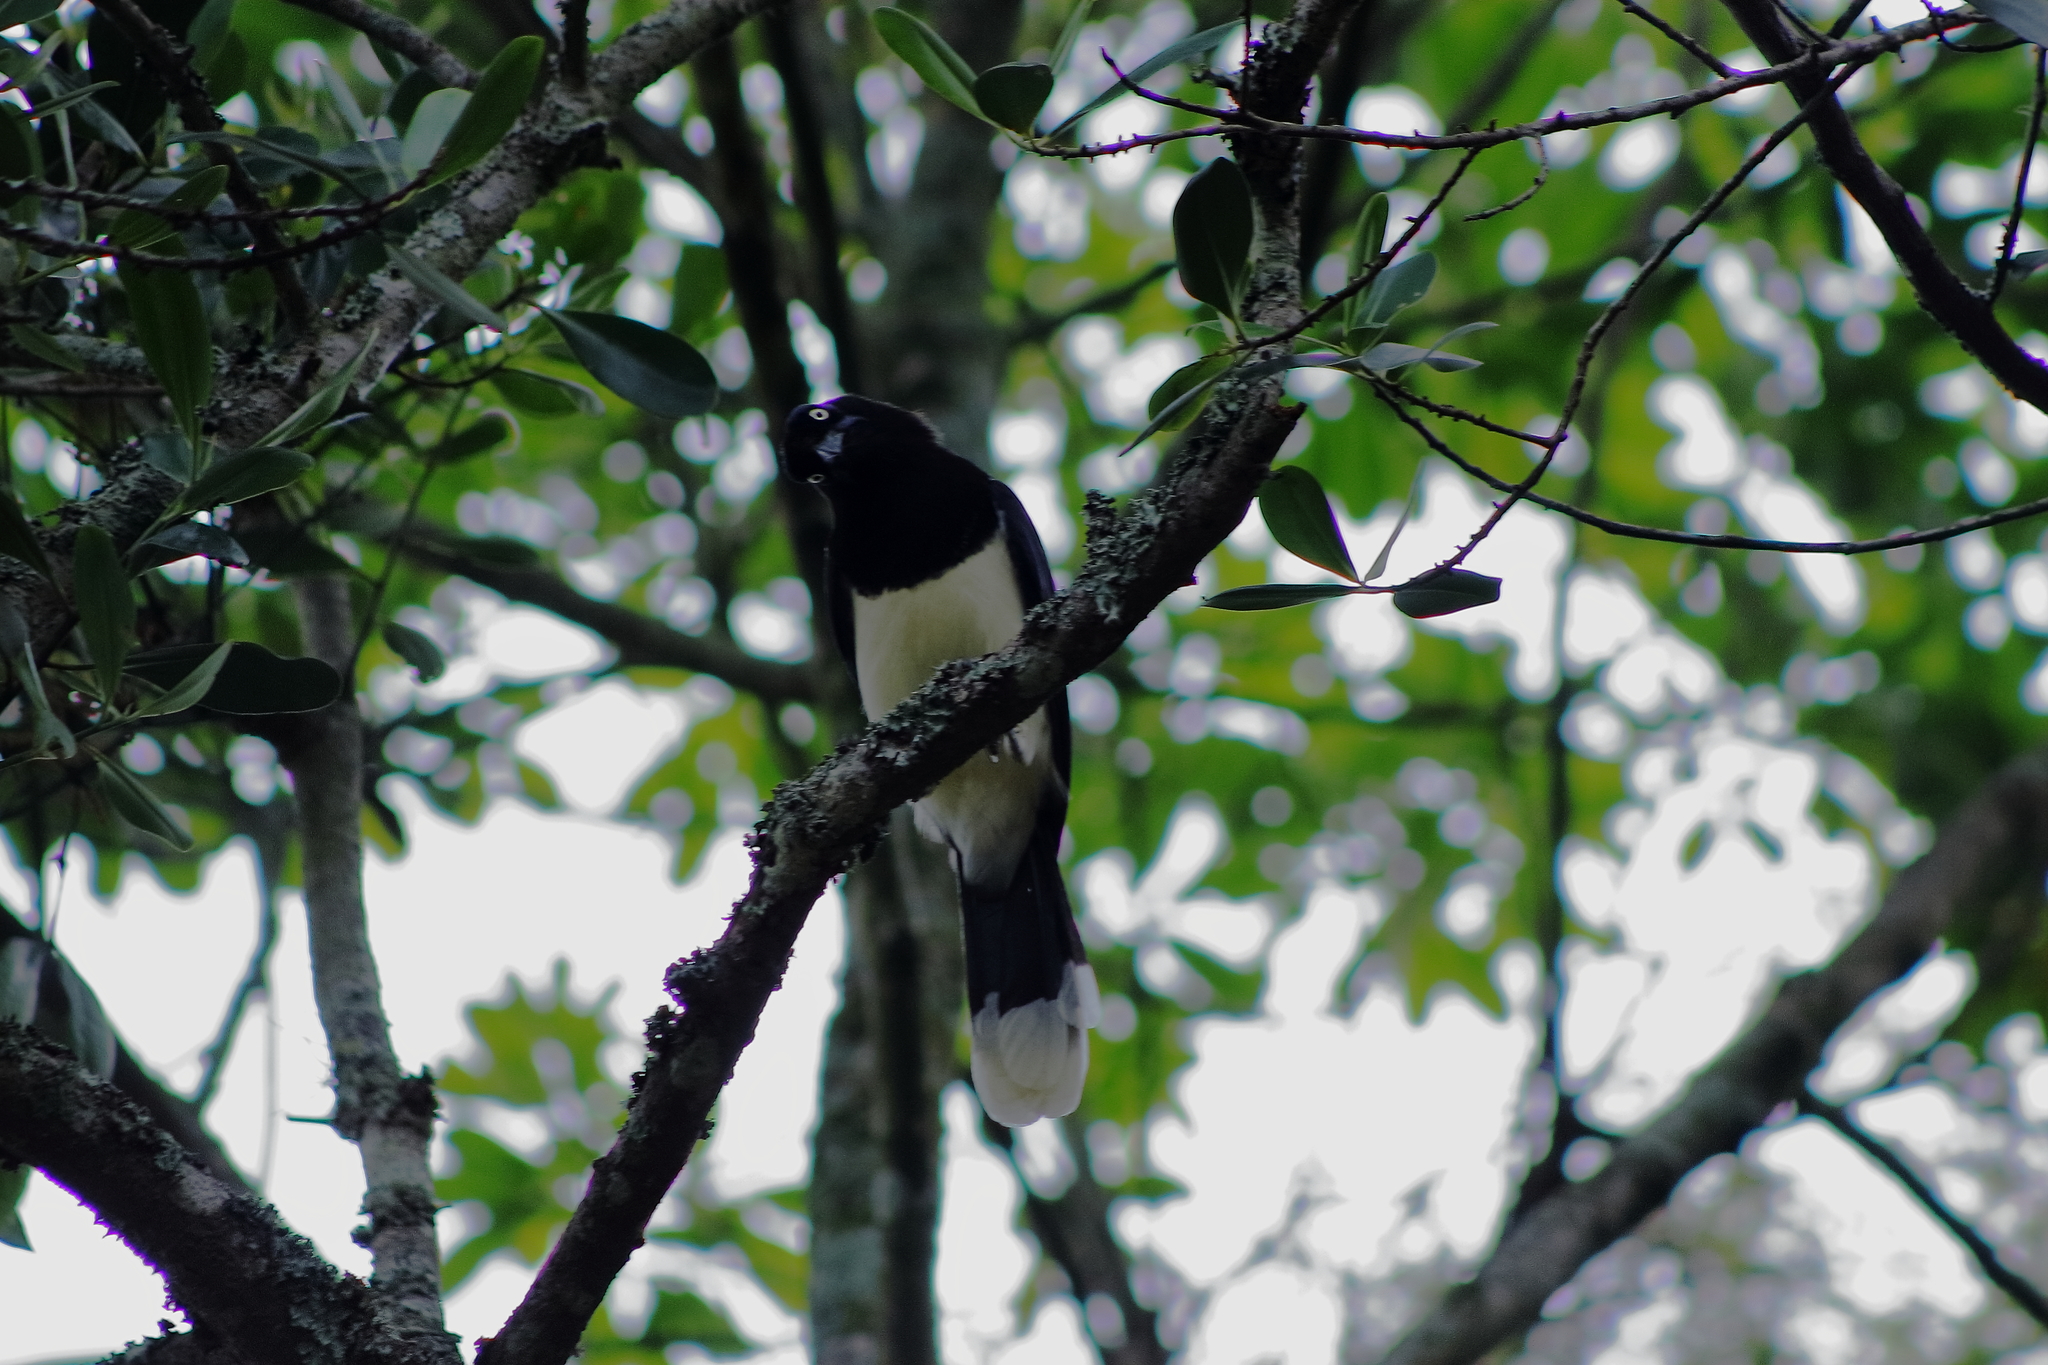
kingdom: Animalia
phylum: Chordata
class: Aves
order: Passeriformes
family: Corvidae
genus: Cyanocorax
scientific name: Cyanocorax affinis
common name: Black-chested jay
